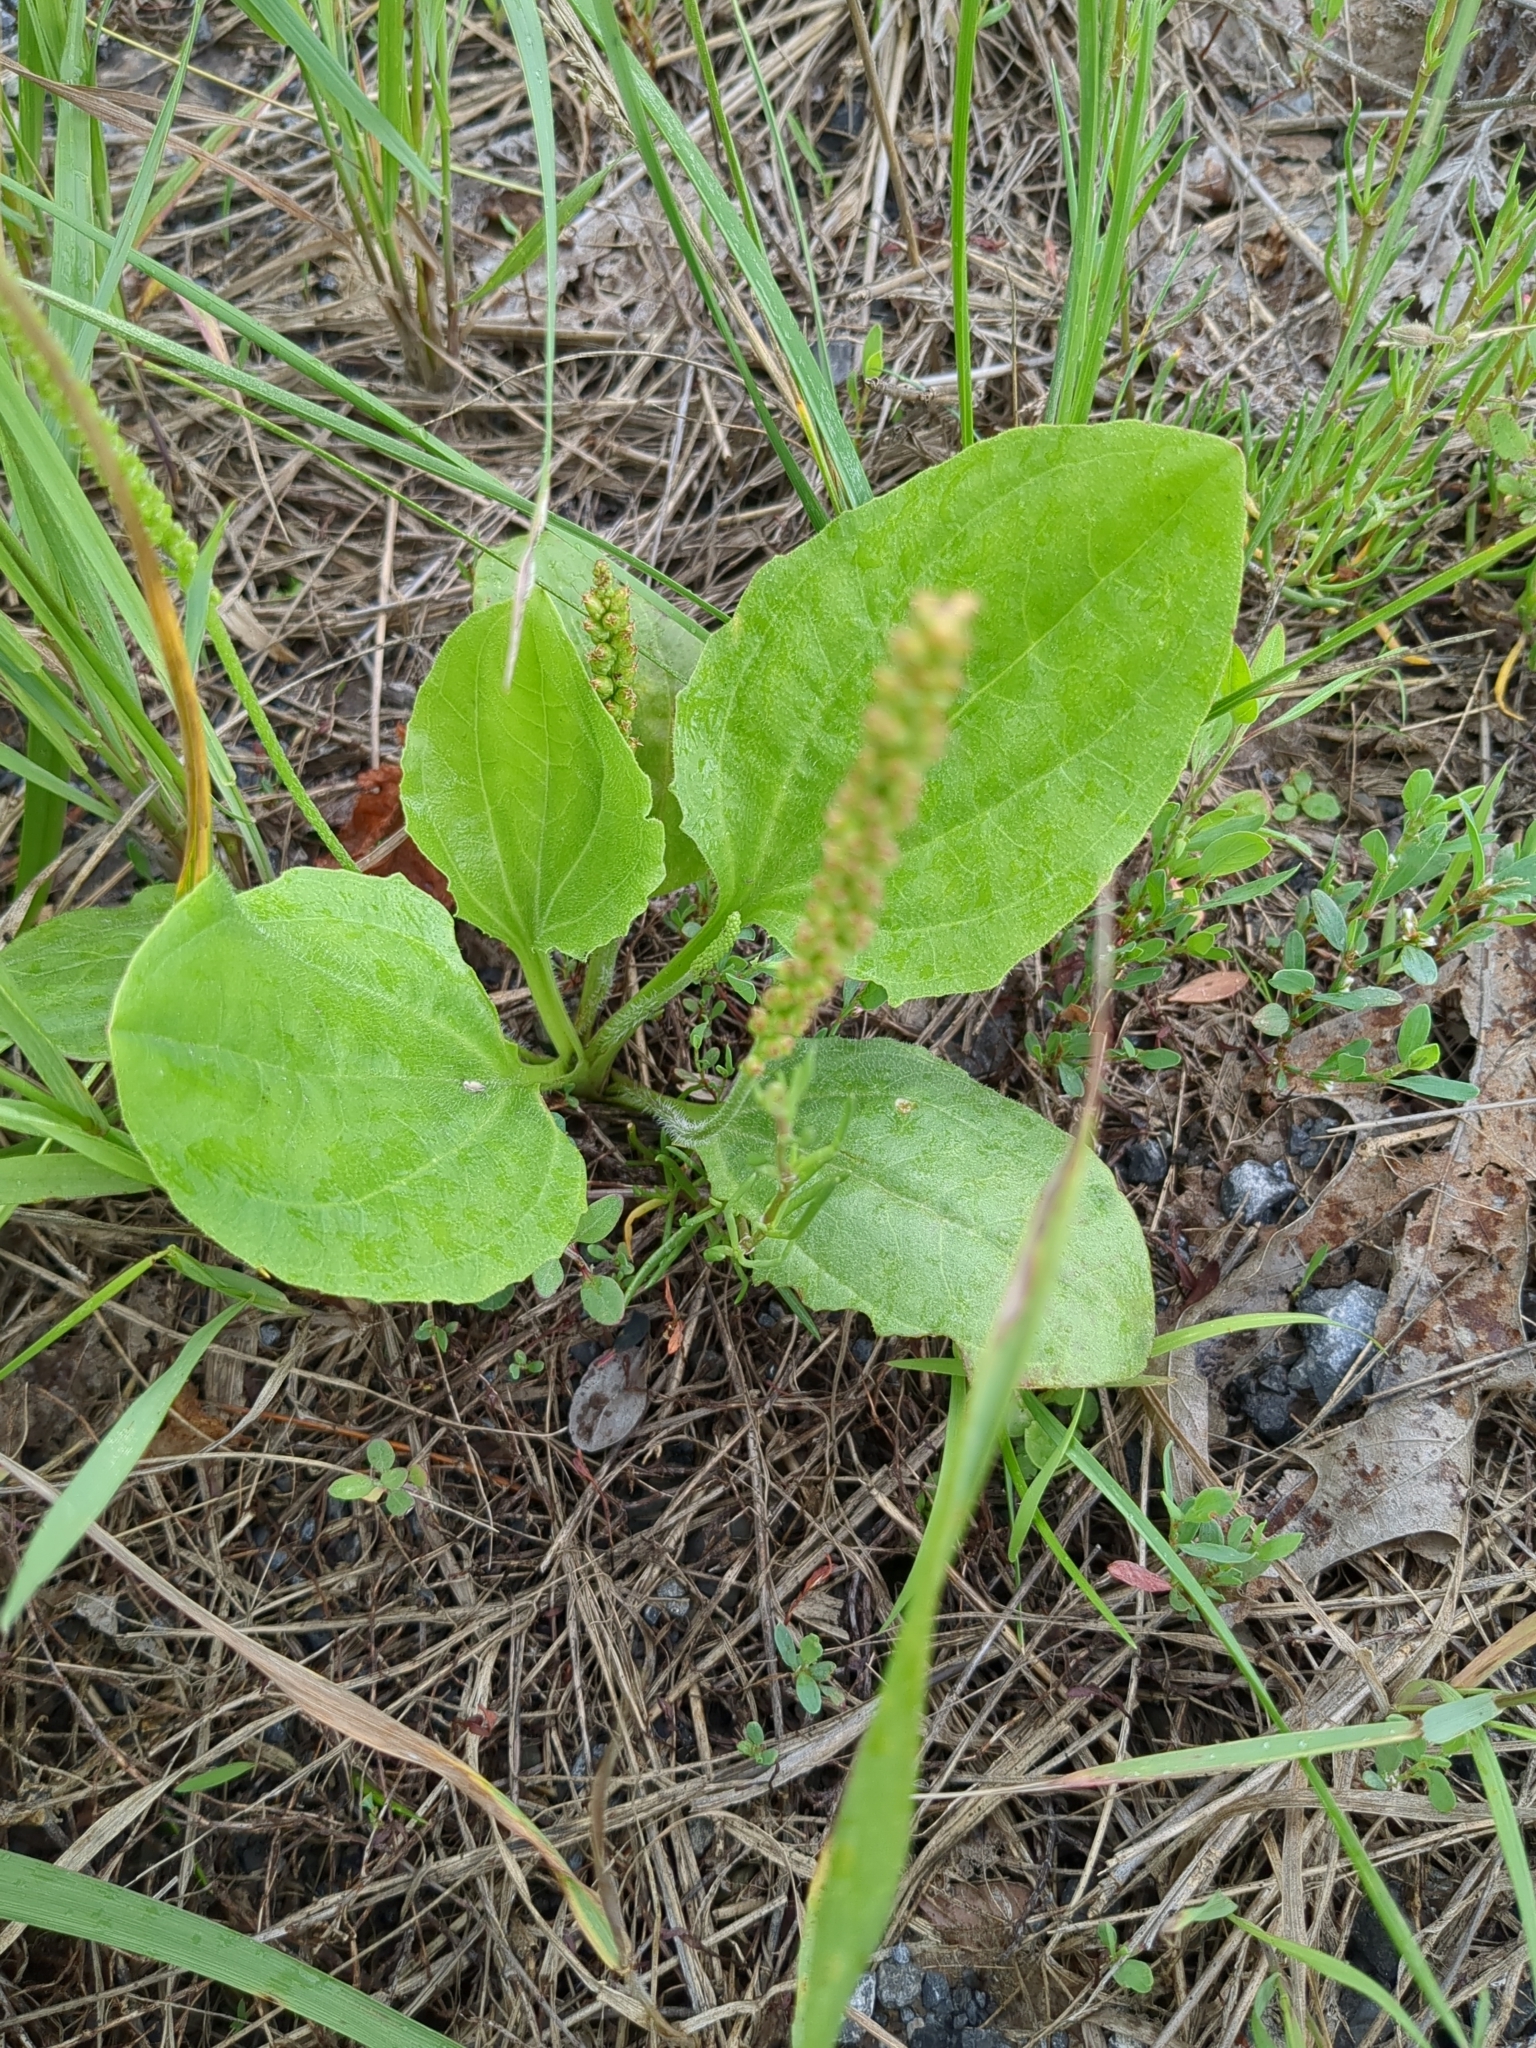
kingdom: Plantae
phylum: Tracheophyta
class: Magnoliopsida
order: Lamiales
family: Plantaginaceae
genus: Plantago
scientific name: Plantago major
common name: Common plantain
